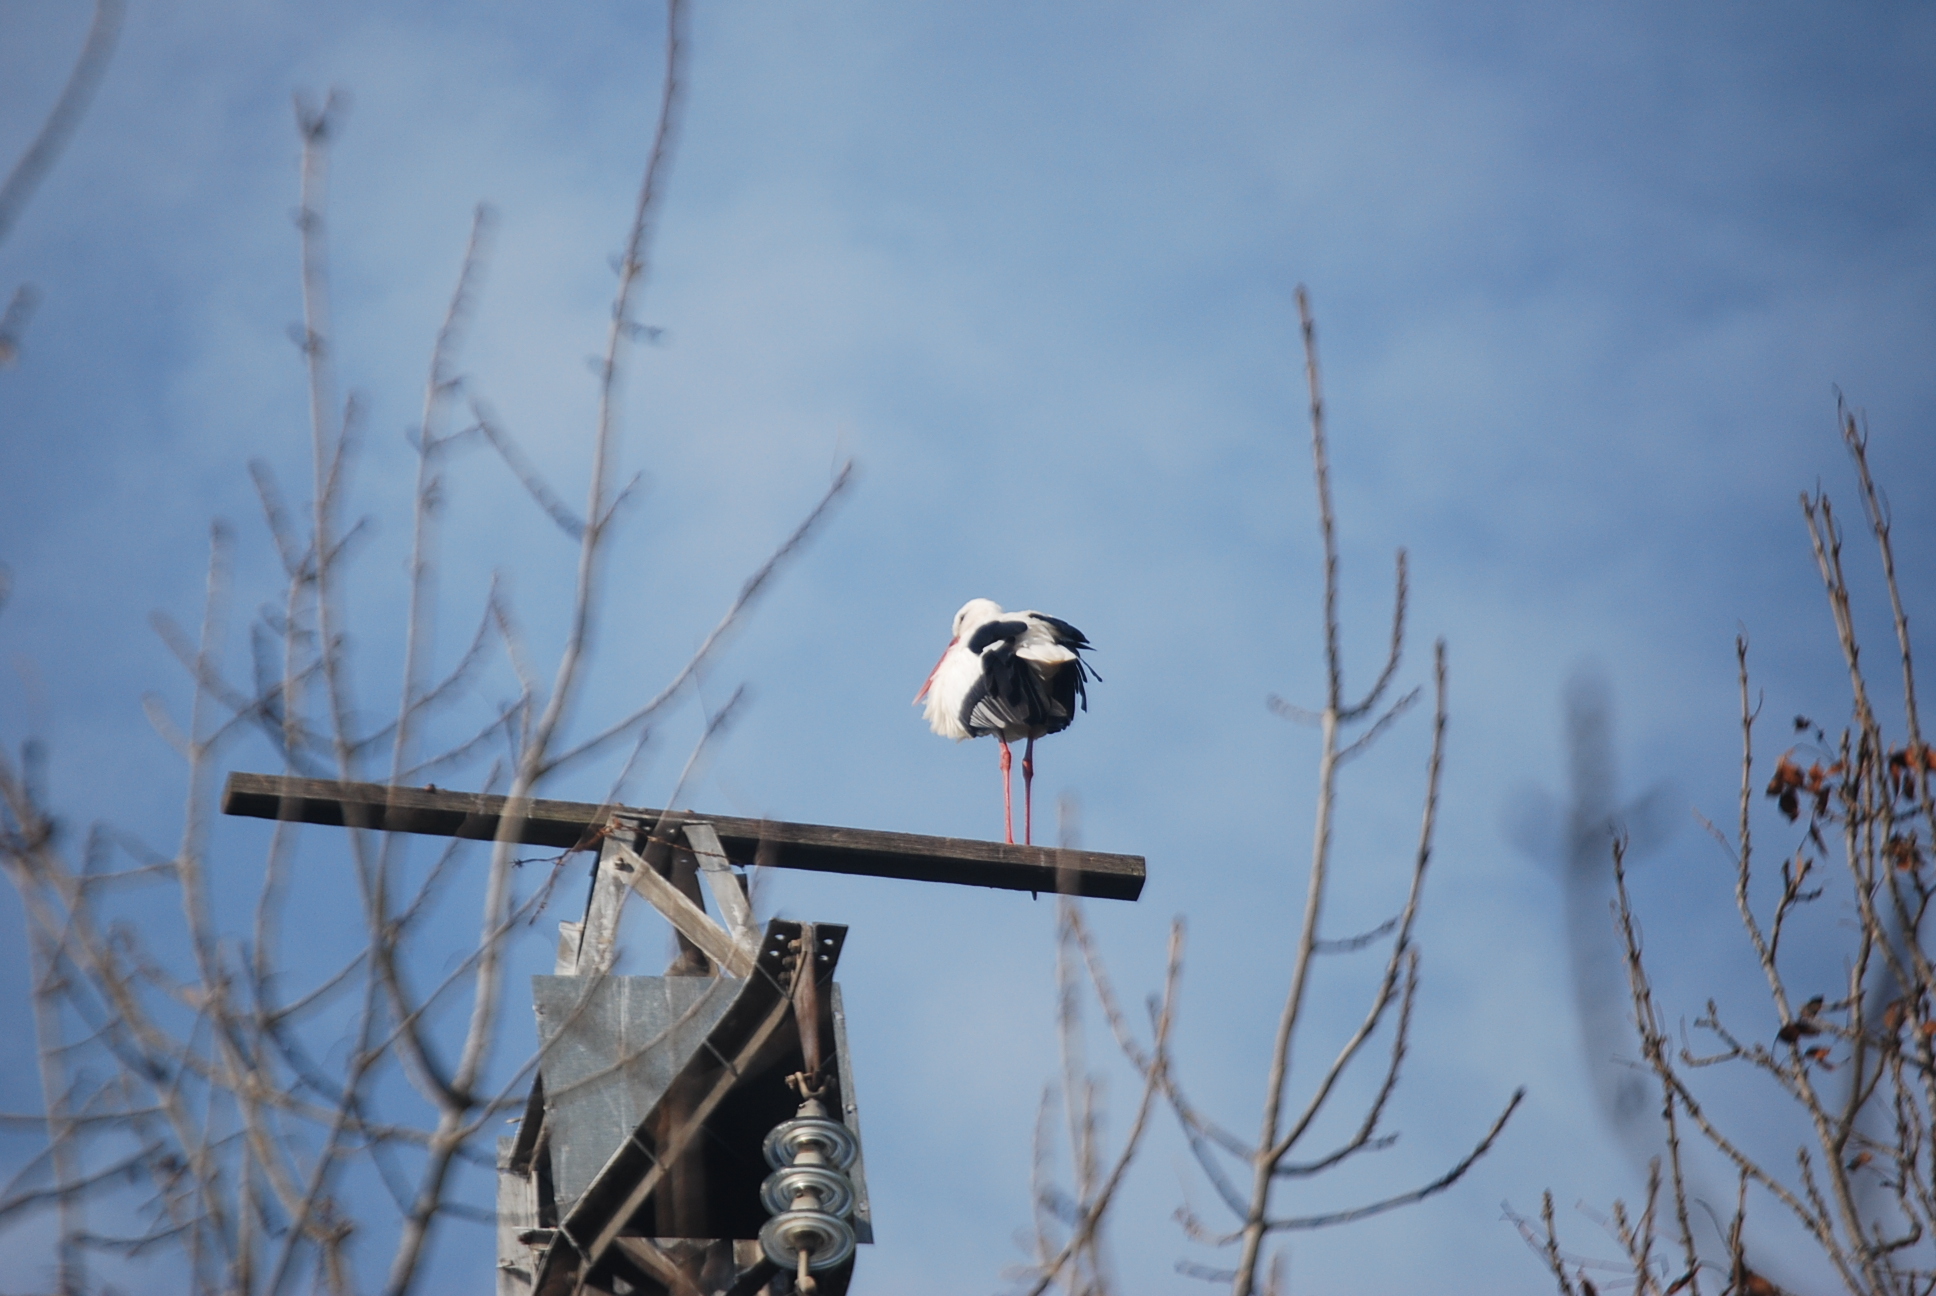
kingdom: Animalia
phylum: Chordata
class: Aves
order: Ciconiiformes
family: Ciconiidae
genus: Ciconia
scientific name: Ciconia ciconia
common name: White stork
